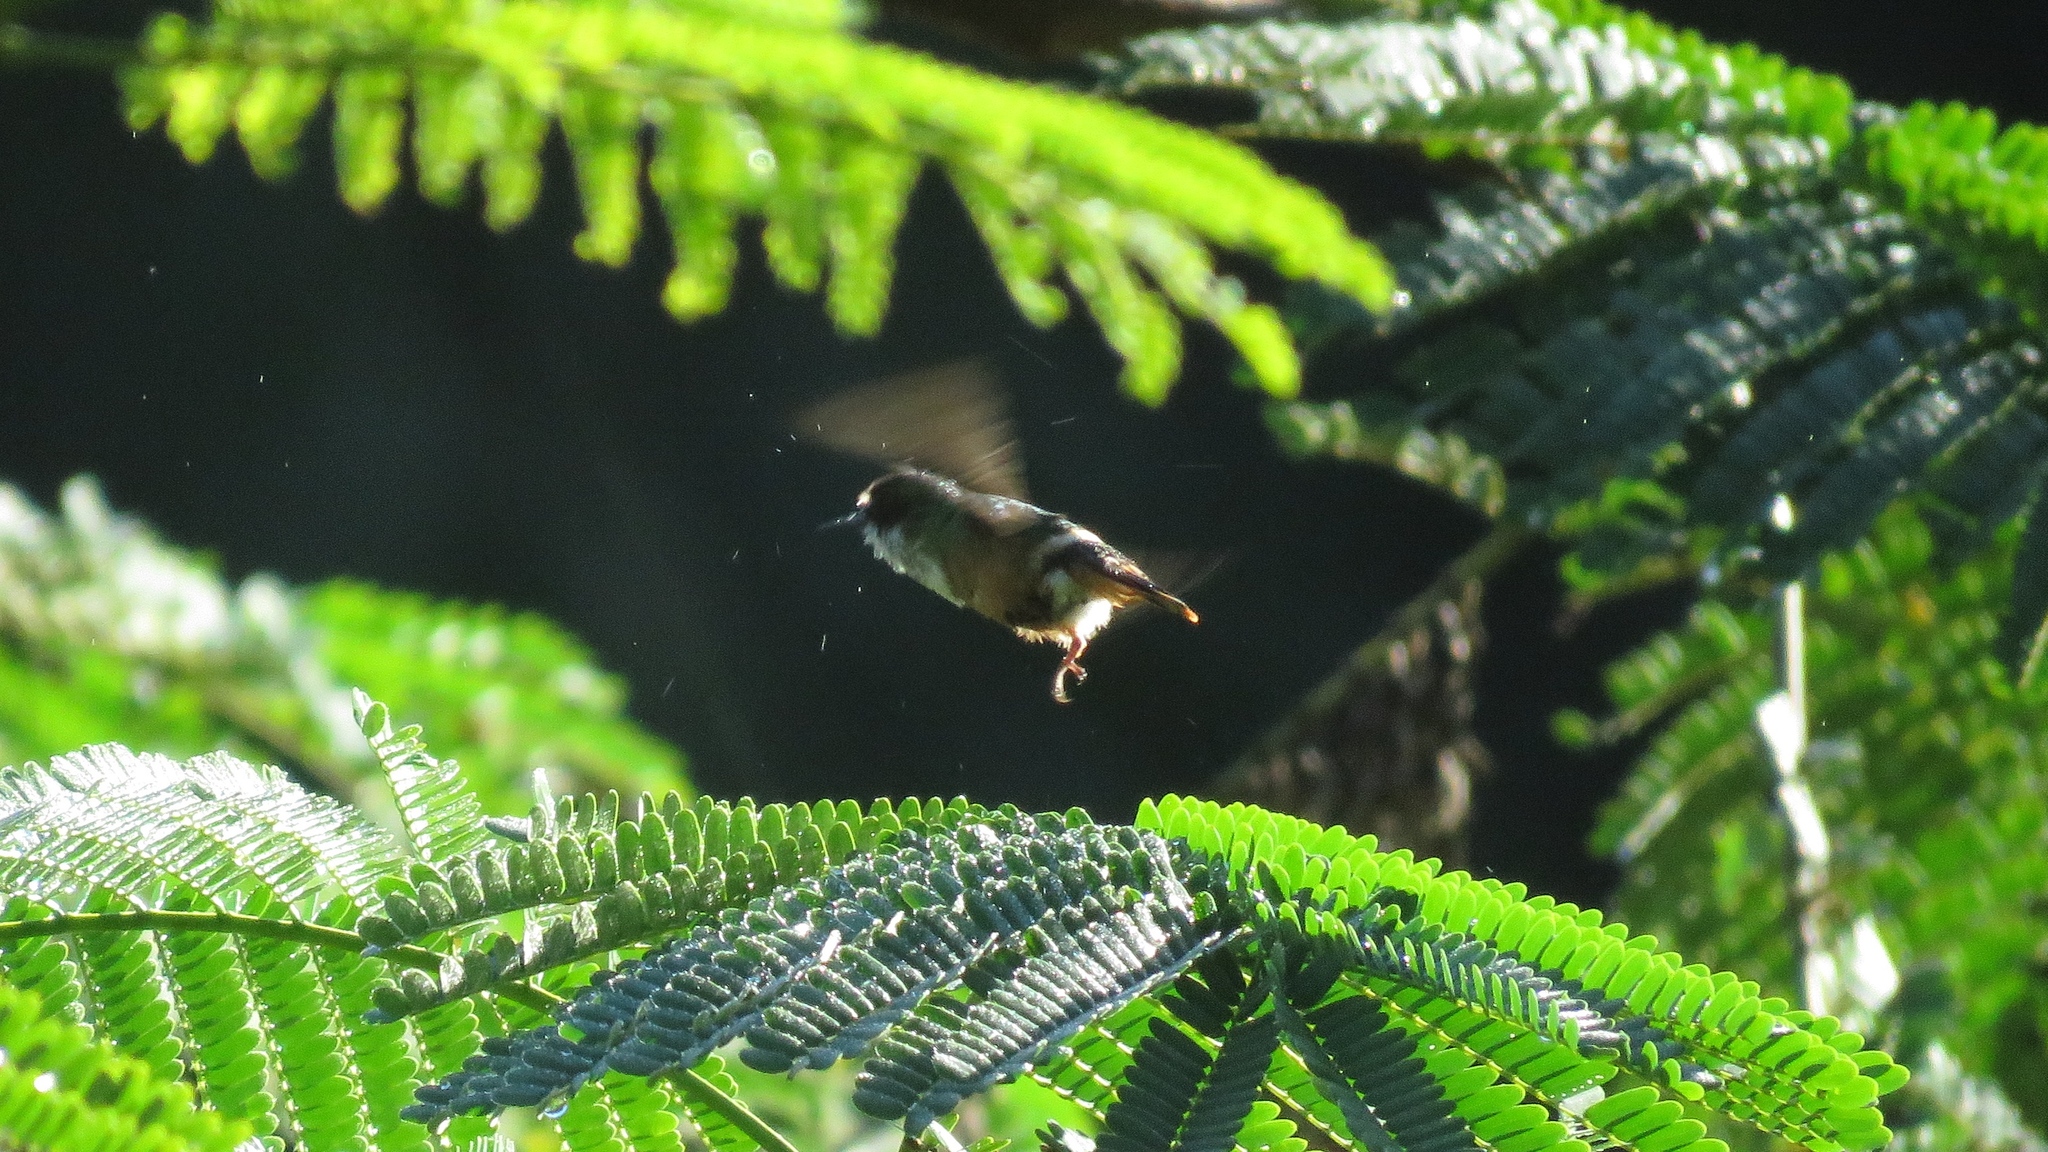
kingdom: Animalia
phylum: Chordata
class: Aves
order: Apodiformes
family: Trochilidae
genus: Lophornis
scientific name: Lophornis adorabilis
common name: White-crested coquette
